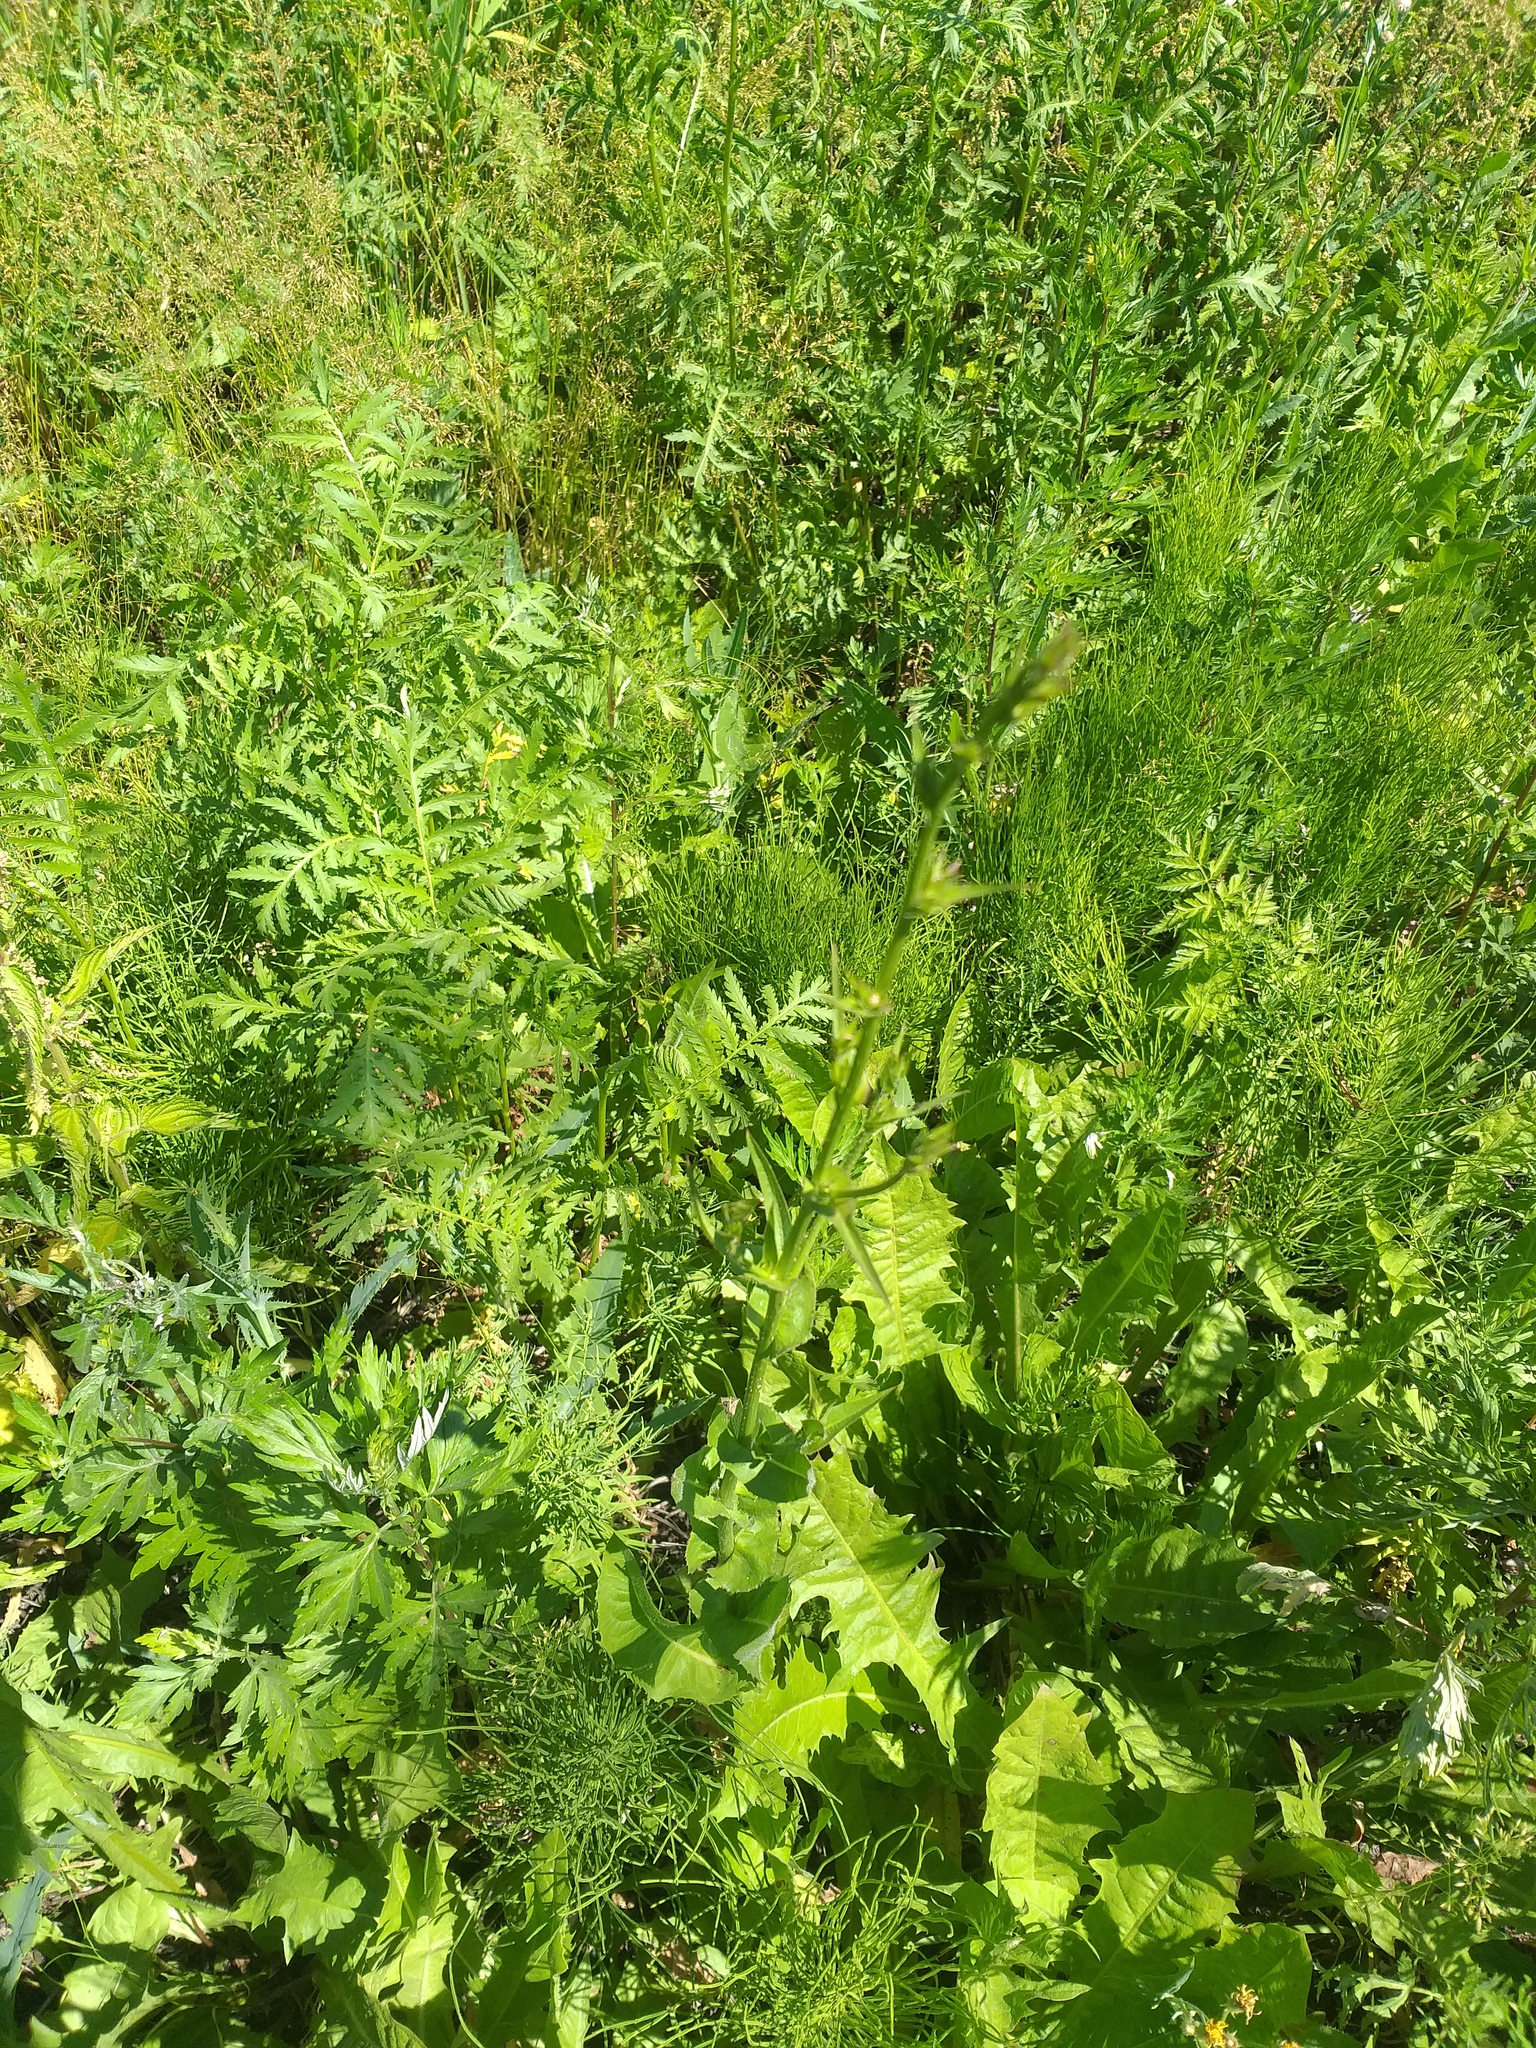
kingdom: Plantae
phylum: Tracheophyta
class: Magnoliopsida
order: Asterales
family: Asteraceae
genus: Cichorium
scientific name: Cichorium intybus
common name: Chicory
